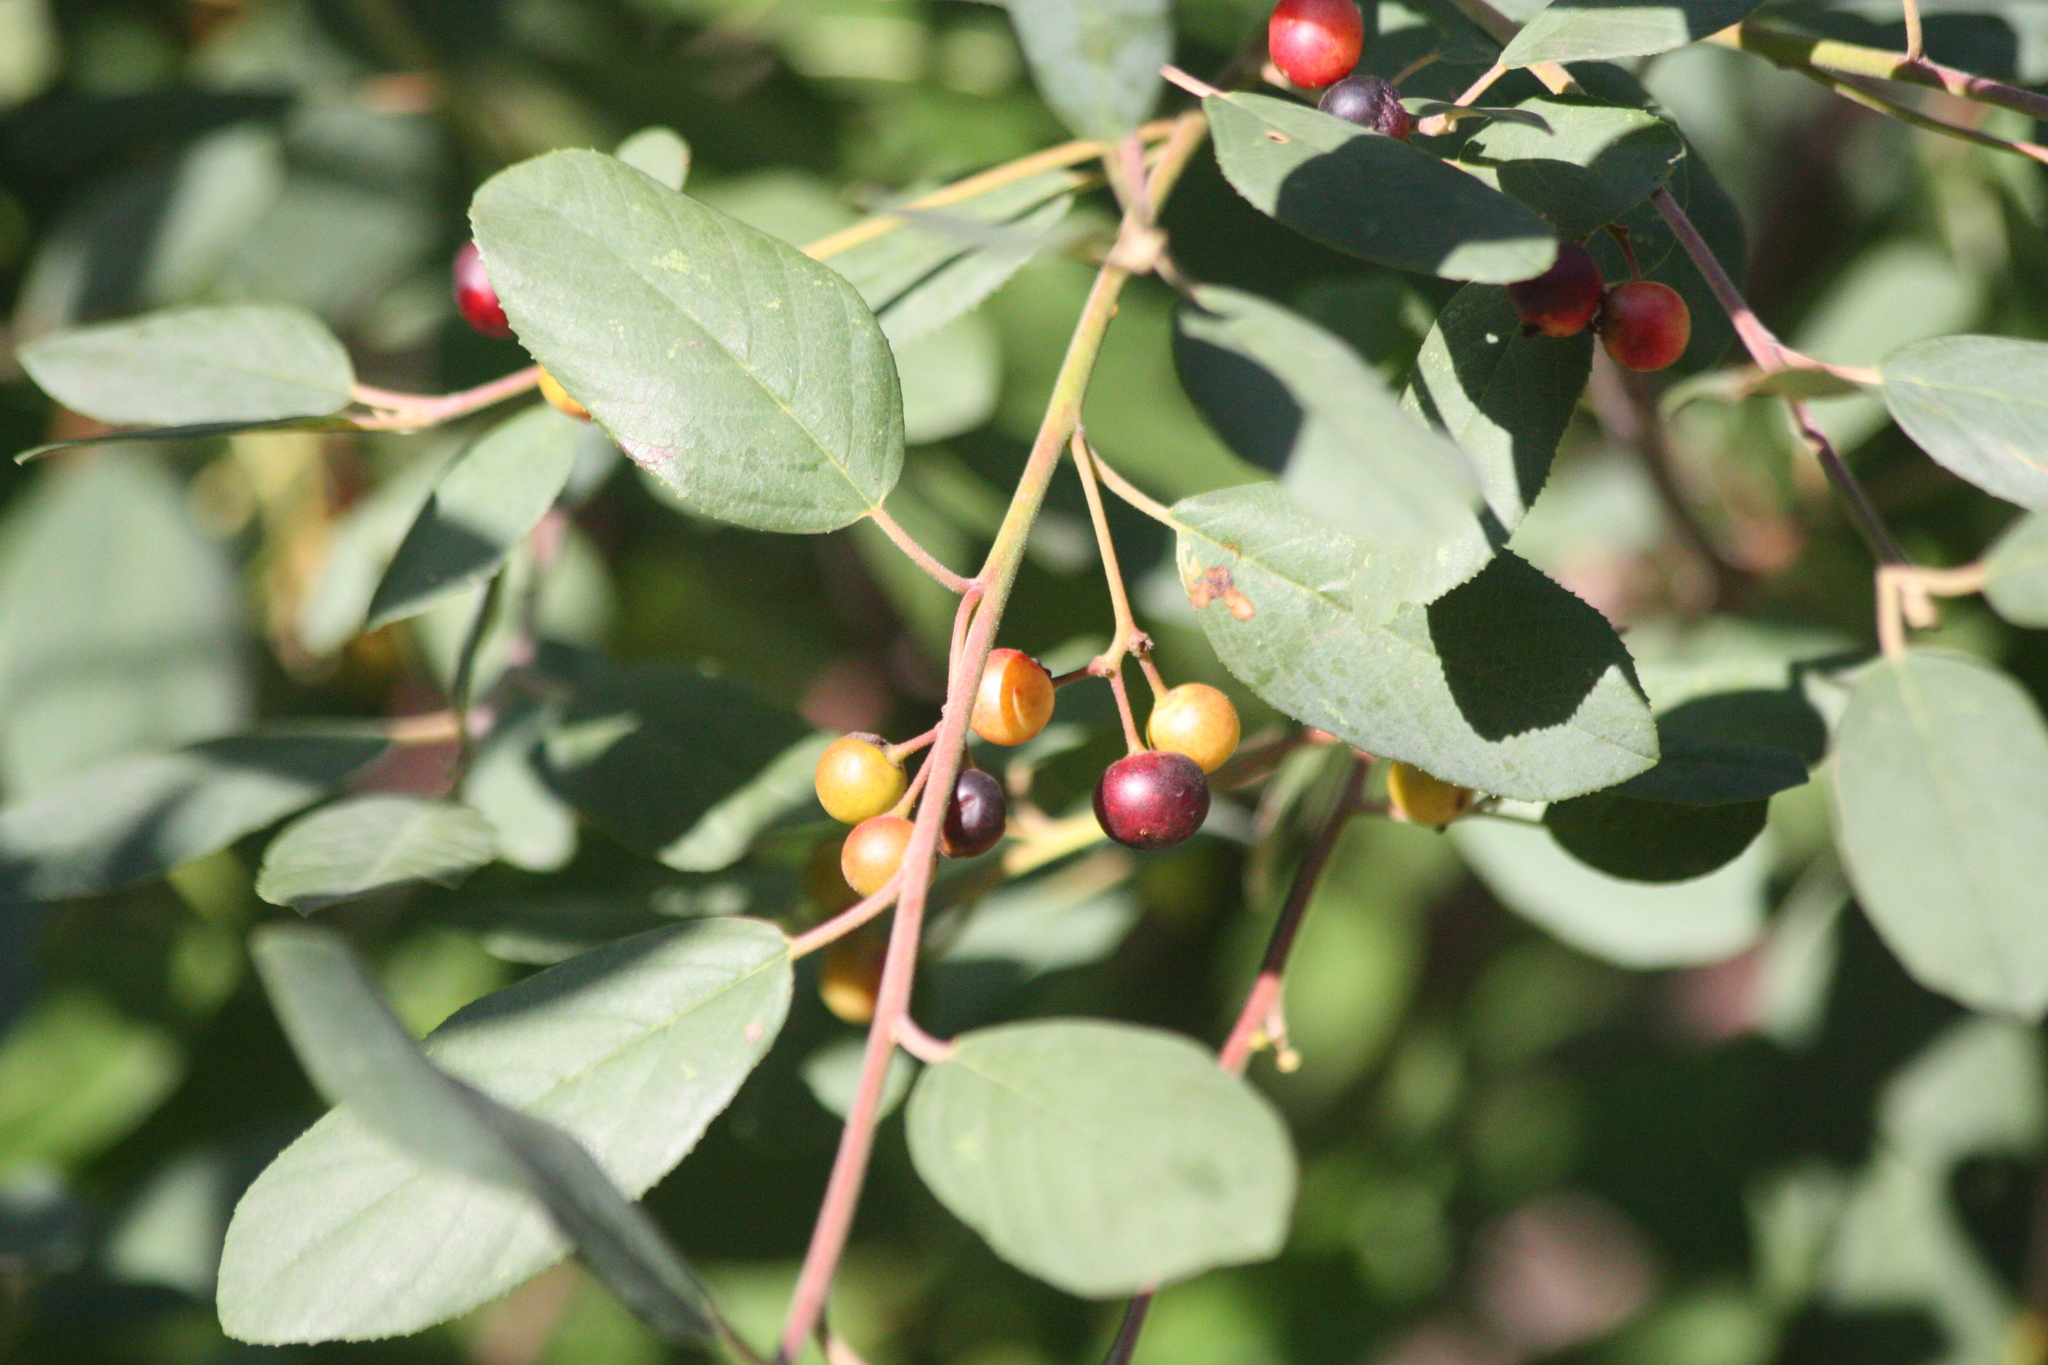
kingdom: Plantae
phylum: Tracheophyta
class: Magnoliopsida
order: Rosales
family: Rhamnaceae
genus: Frangula
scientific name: Frangula californica
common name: California buckthorn
